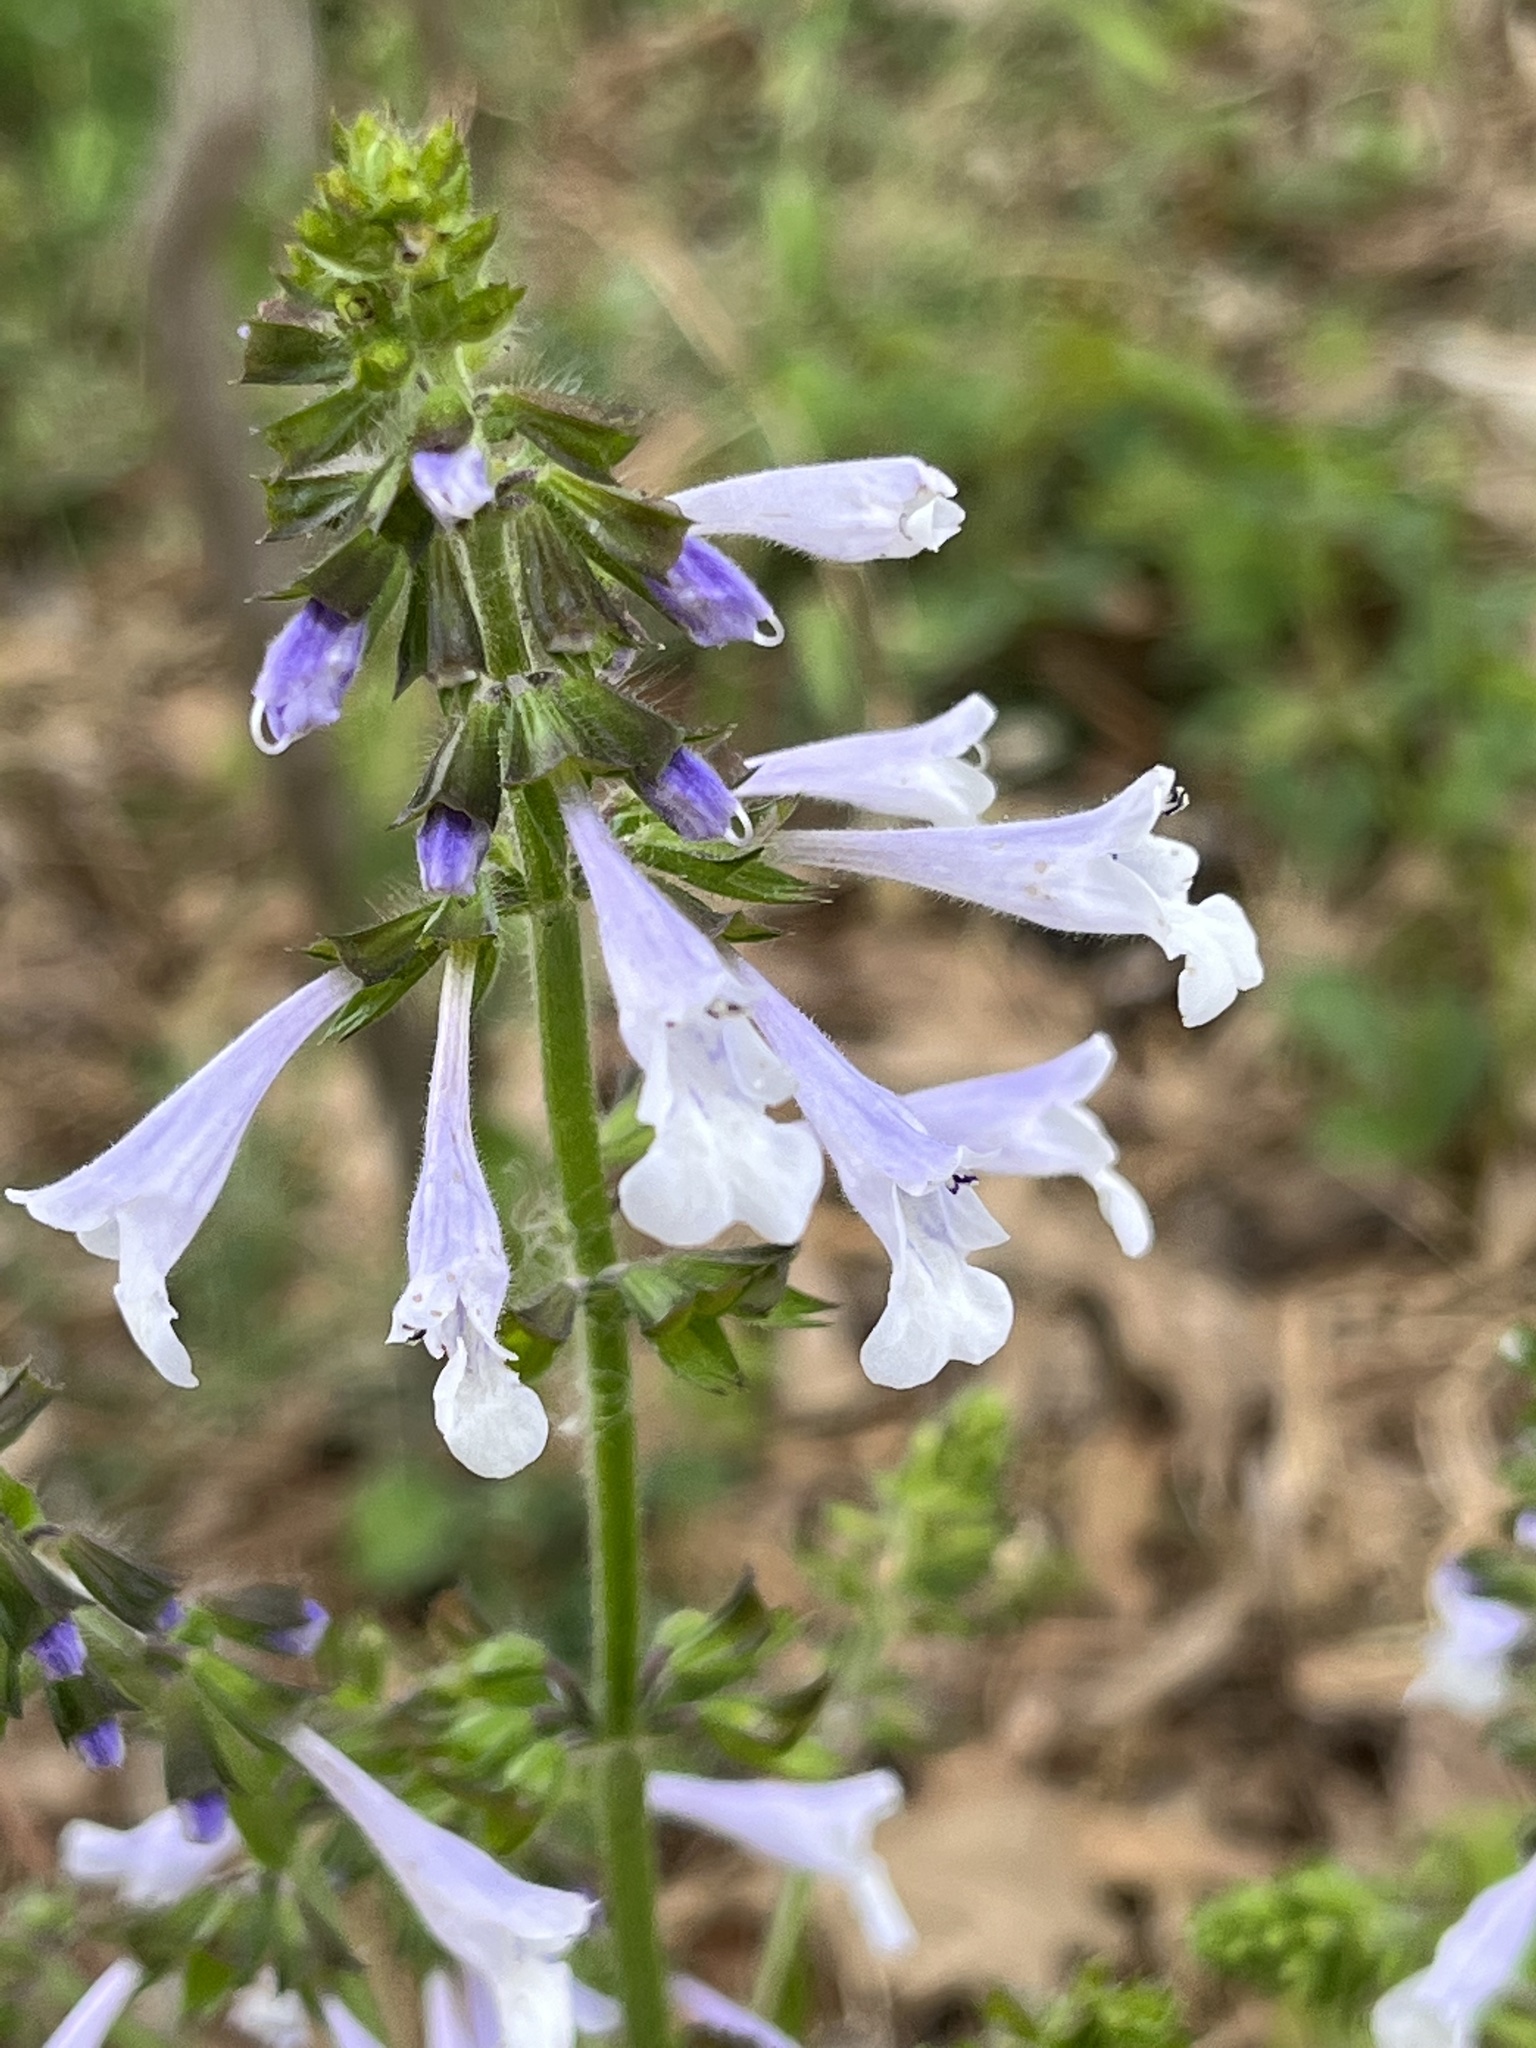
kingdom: Plantae
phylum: Tracheophyta
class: Magnoliopsida
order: Lamiales
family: Lamiaceae
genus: Salvia
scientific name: Salvia lyrata
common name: Cancerweed
